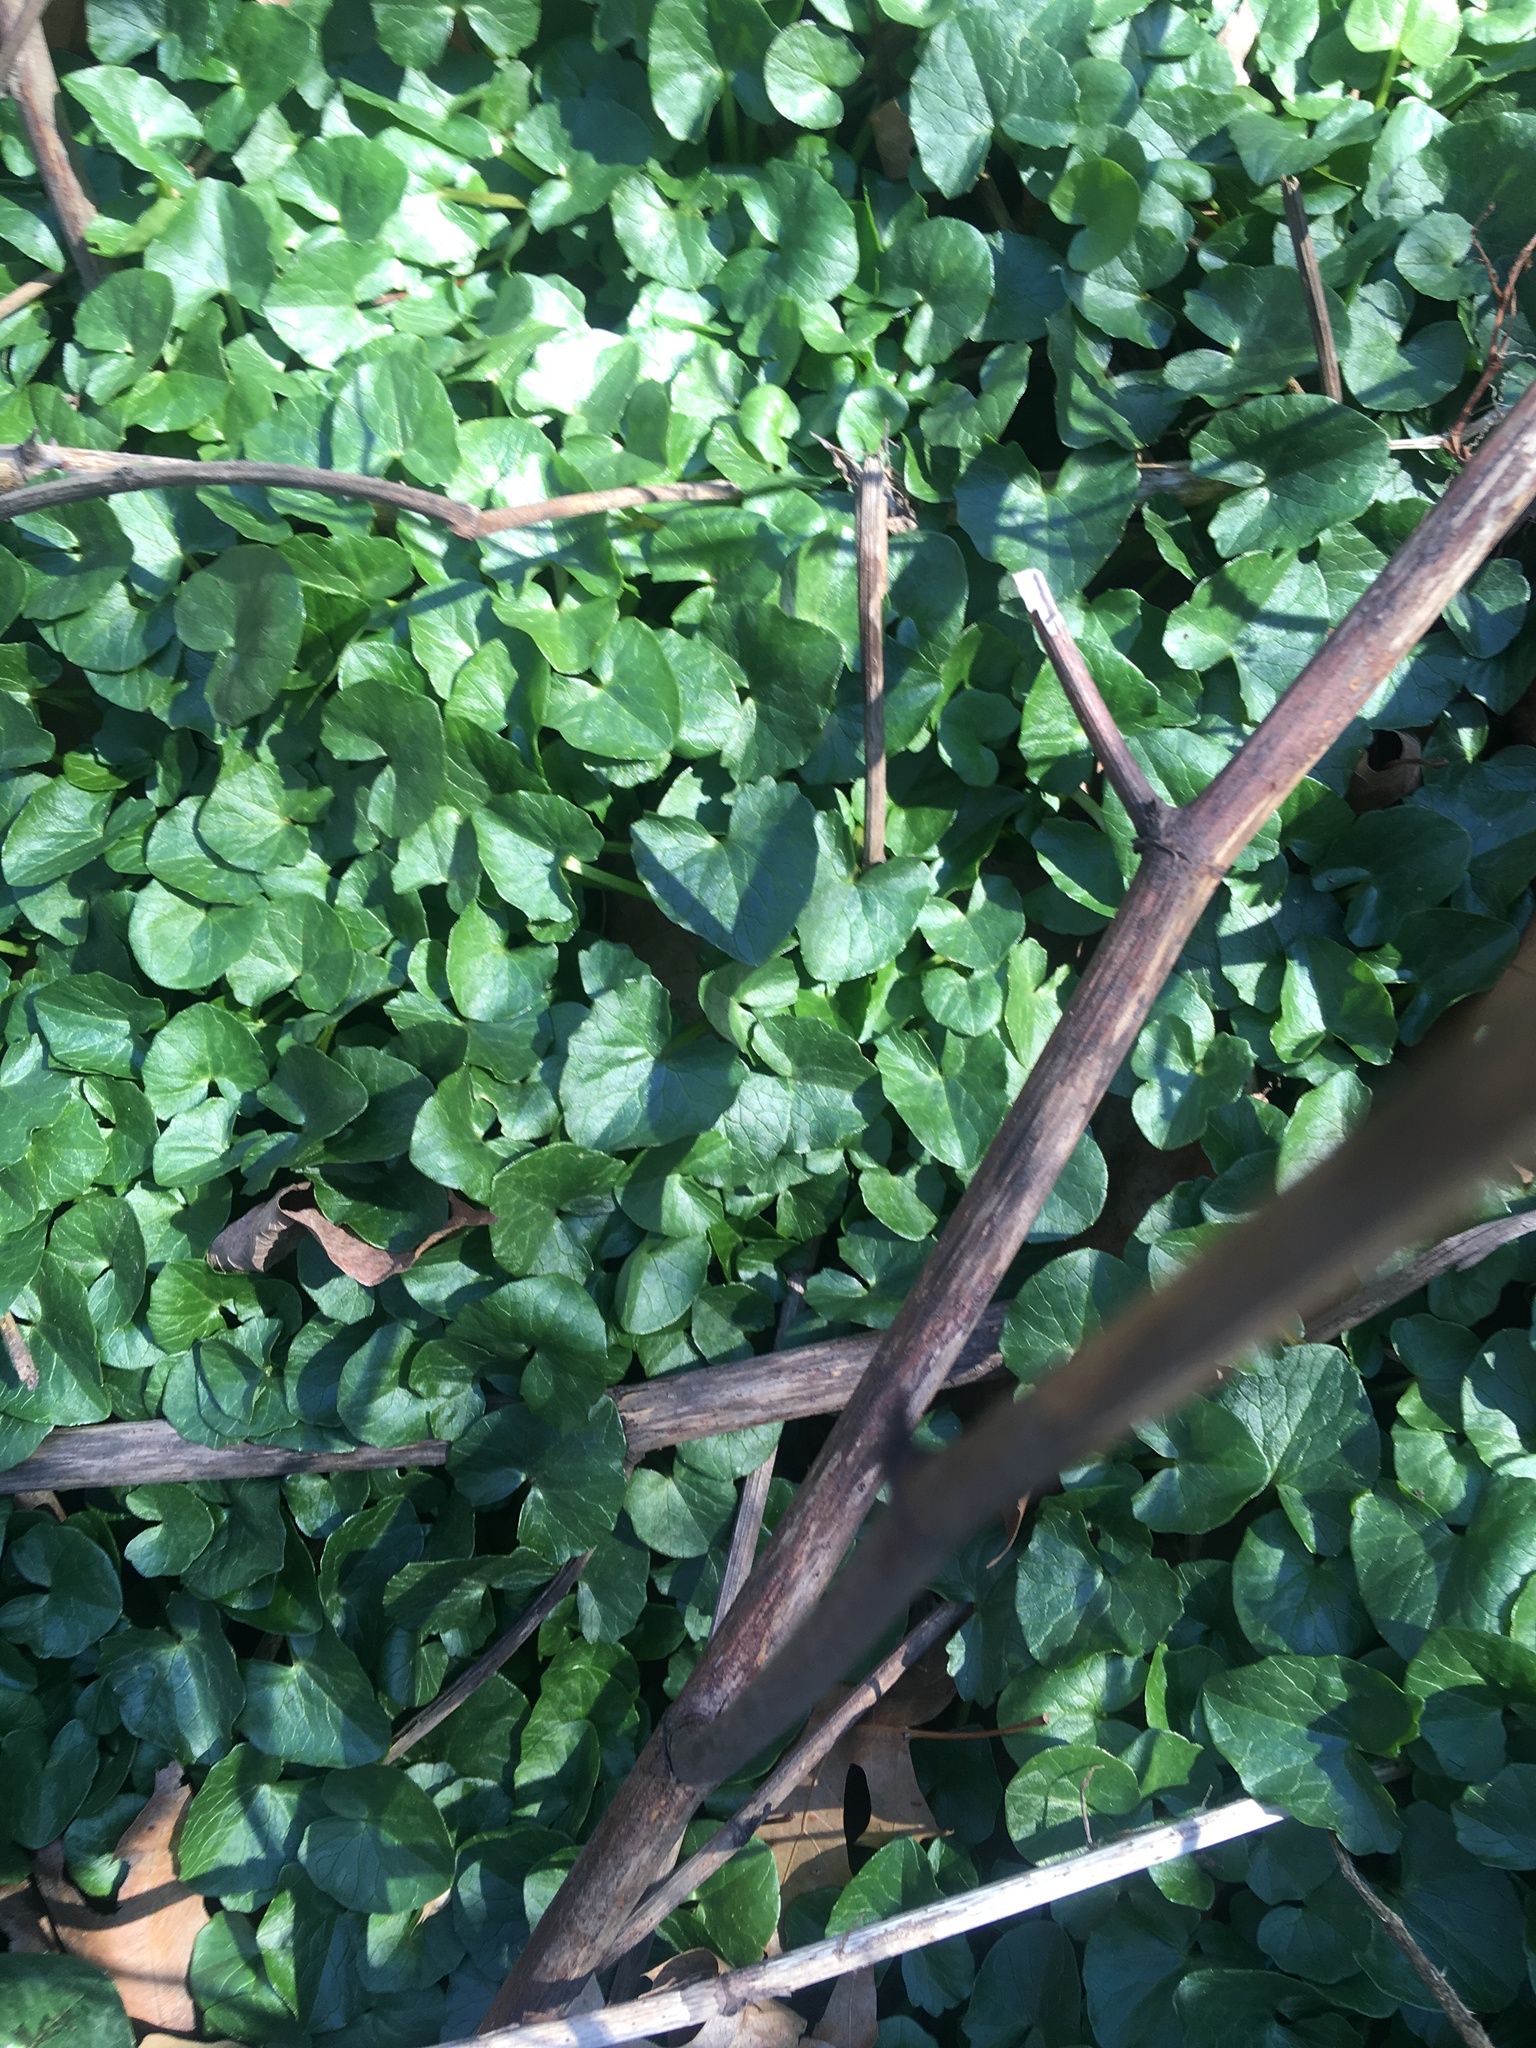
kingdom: Plantae
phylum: Tracheophyta
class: Magnoliopsida
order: Ranunculales
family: Ranunculaceae
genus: Ficaria
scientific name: Ficaria verna
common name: Lesser celandine
